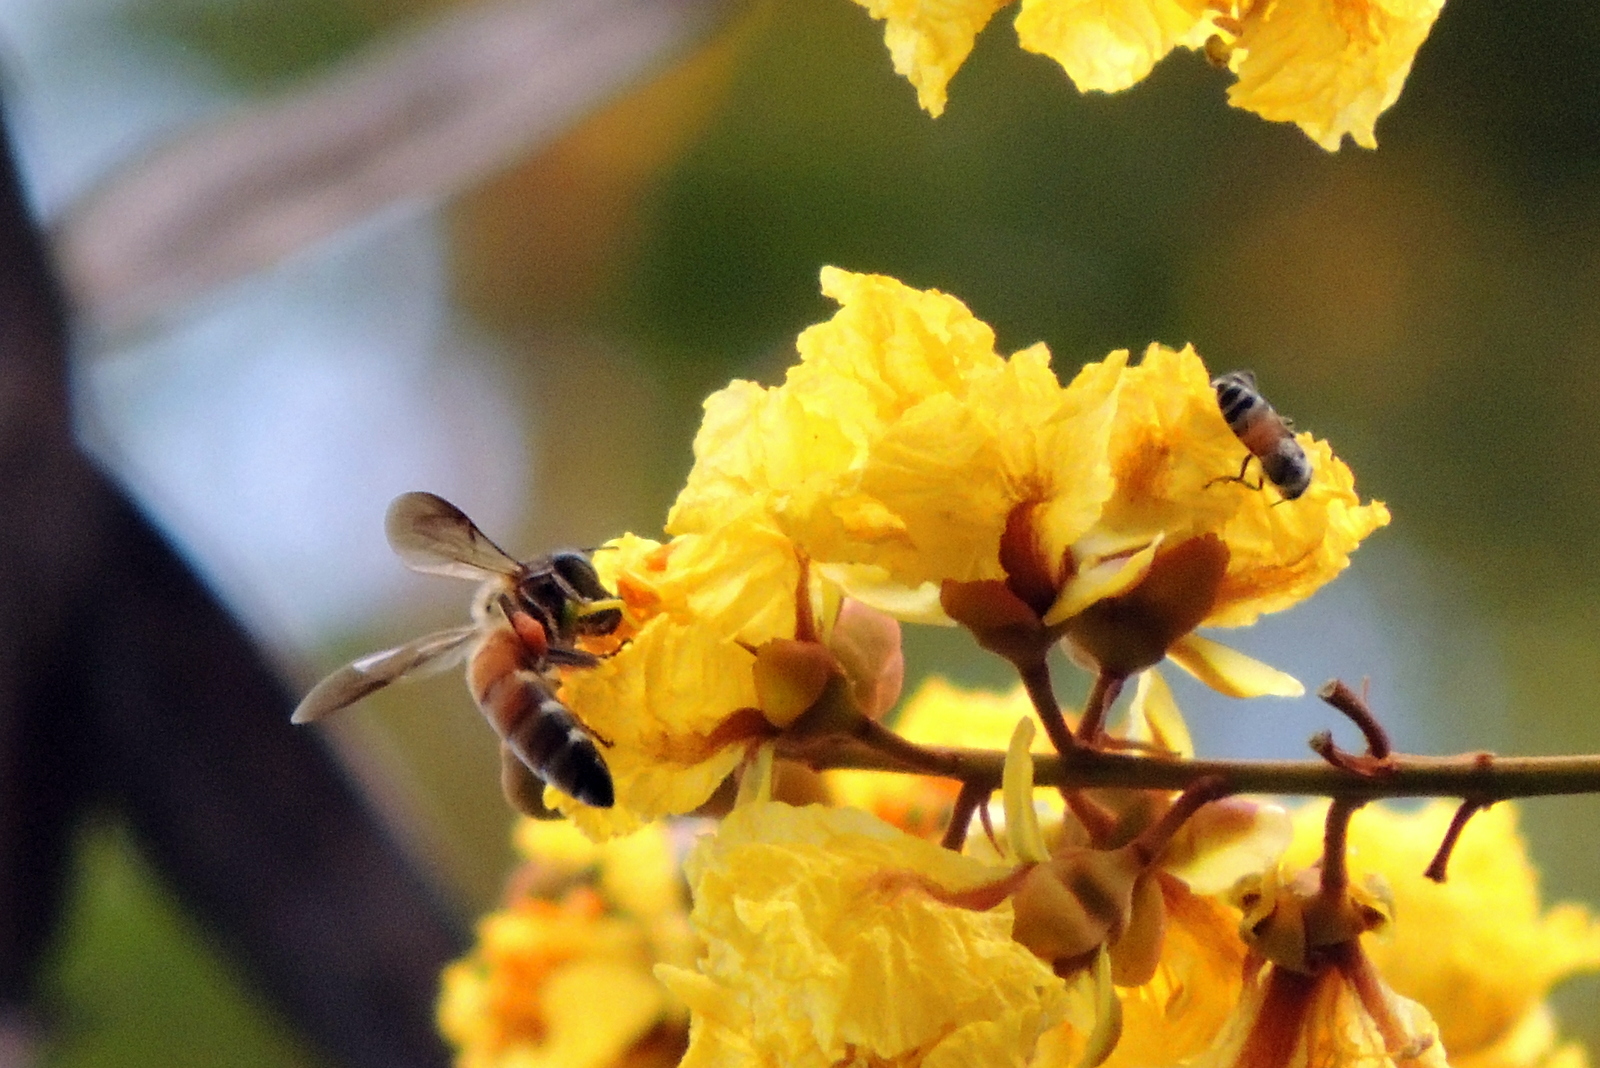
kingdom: Animalia
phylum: Arthropoda
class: Insecta
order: Hymenoptera
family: Apidae
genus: Apis
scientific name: Apis florea
